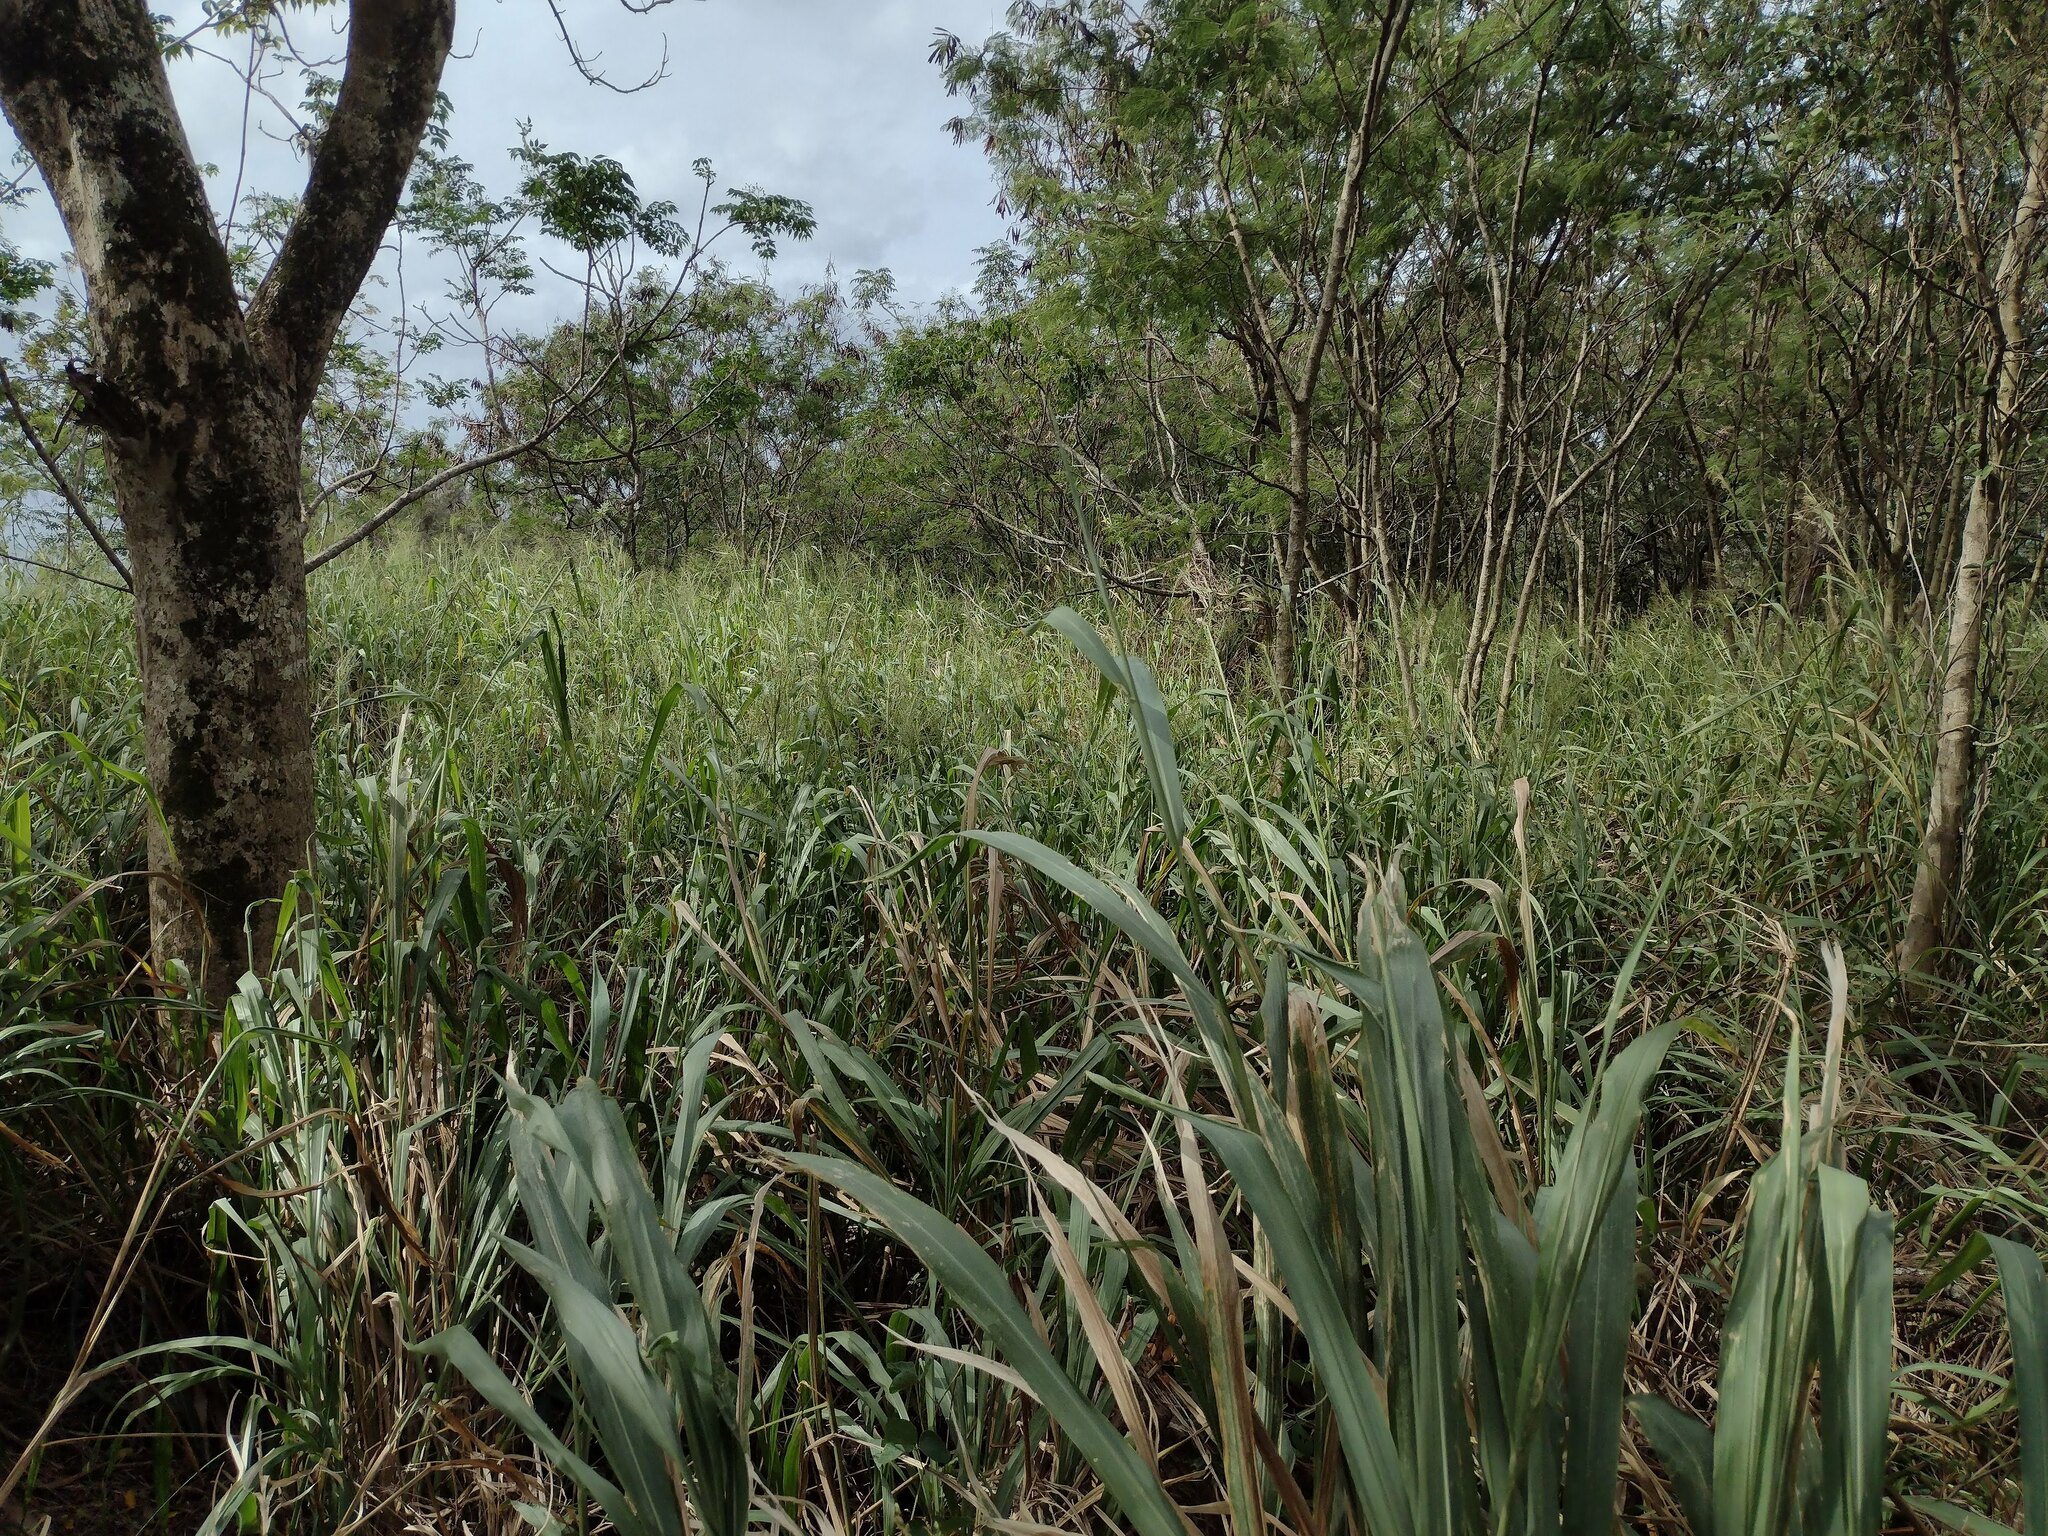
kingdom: Plantae
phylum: Tracheophyta
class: Liliopsida
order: Poales
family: Poaceae
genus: Megathyrsus
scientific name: Megathyrsus maximus
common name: Guineagrass
